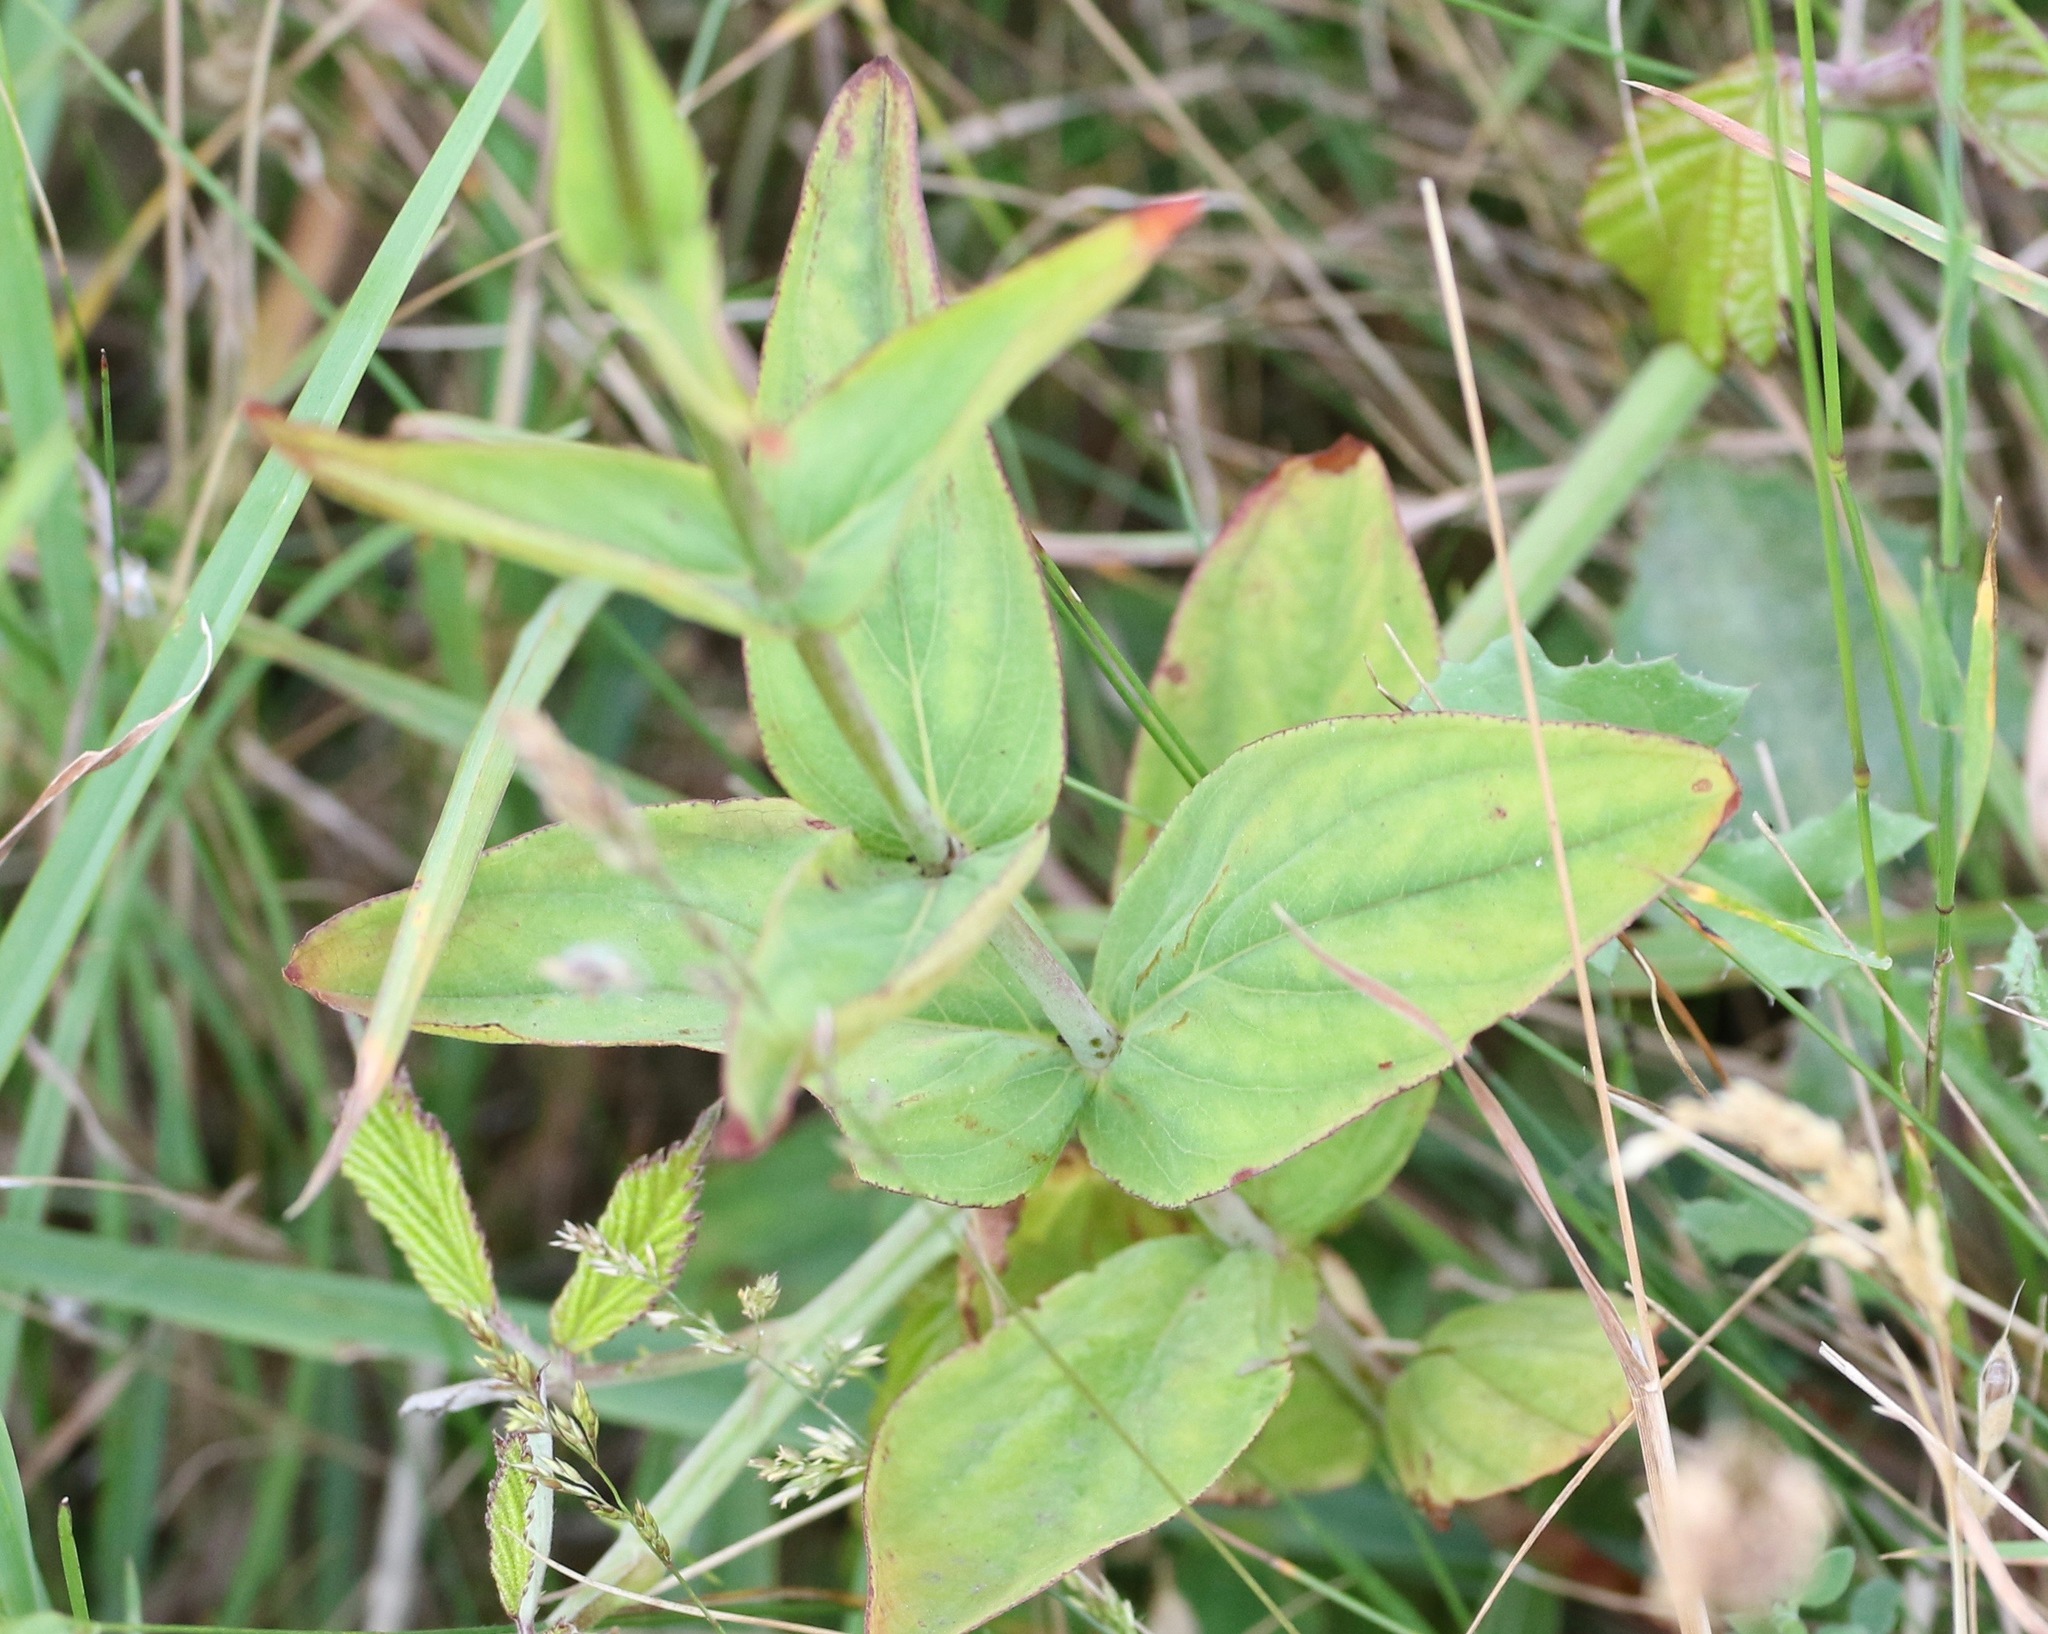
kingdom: Plantae
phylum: Tracheophyta
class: Magnoliopsida
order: Malpighiales
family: Hypericaceae
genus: Hypericum
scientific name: Hypericum montanum
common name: Pale st. john's-wort
